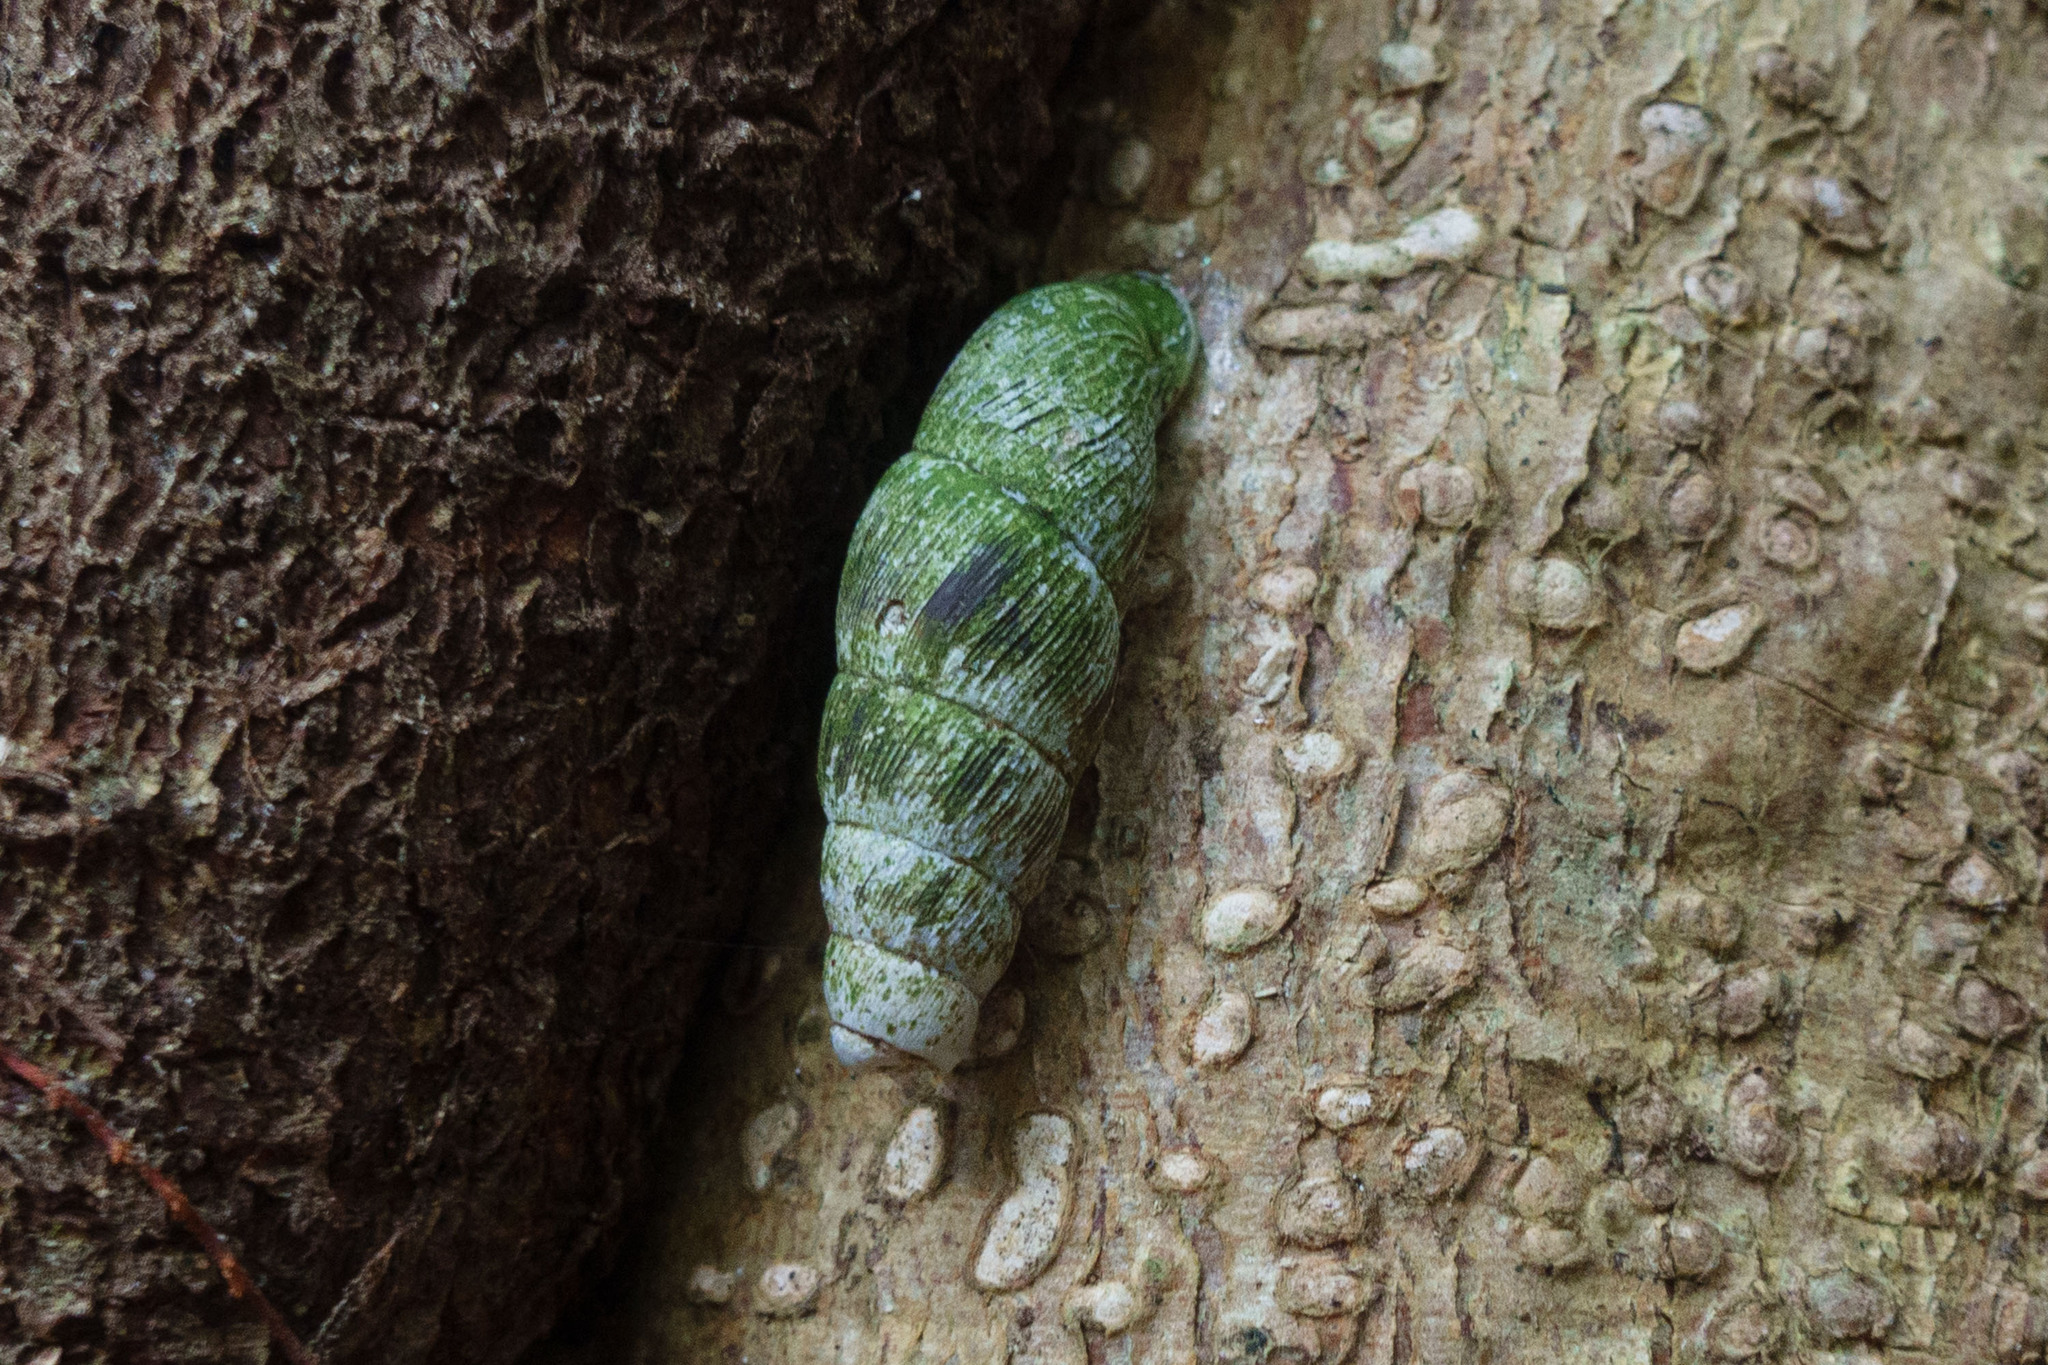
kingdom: Animalia
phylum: Mollusca
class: Gastropoda
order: Stylommatophora
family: Clausiliidae
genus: Stereophaedusa
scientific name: Stereophaedusa valida
